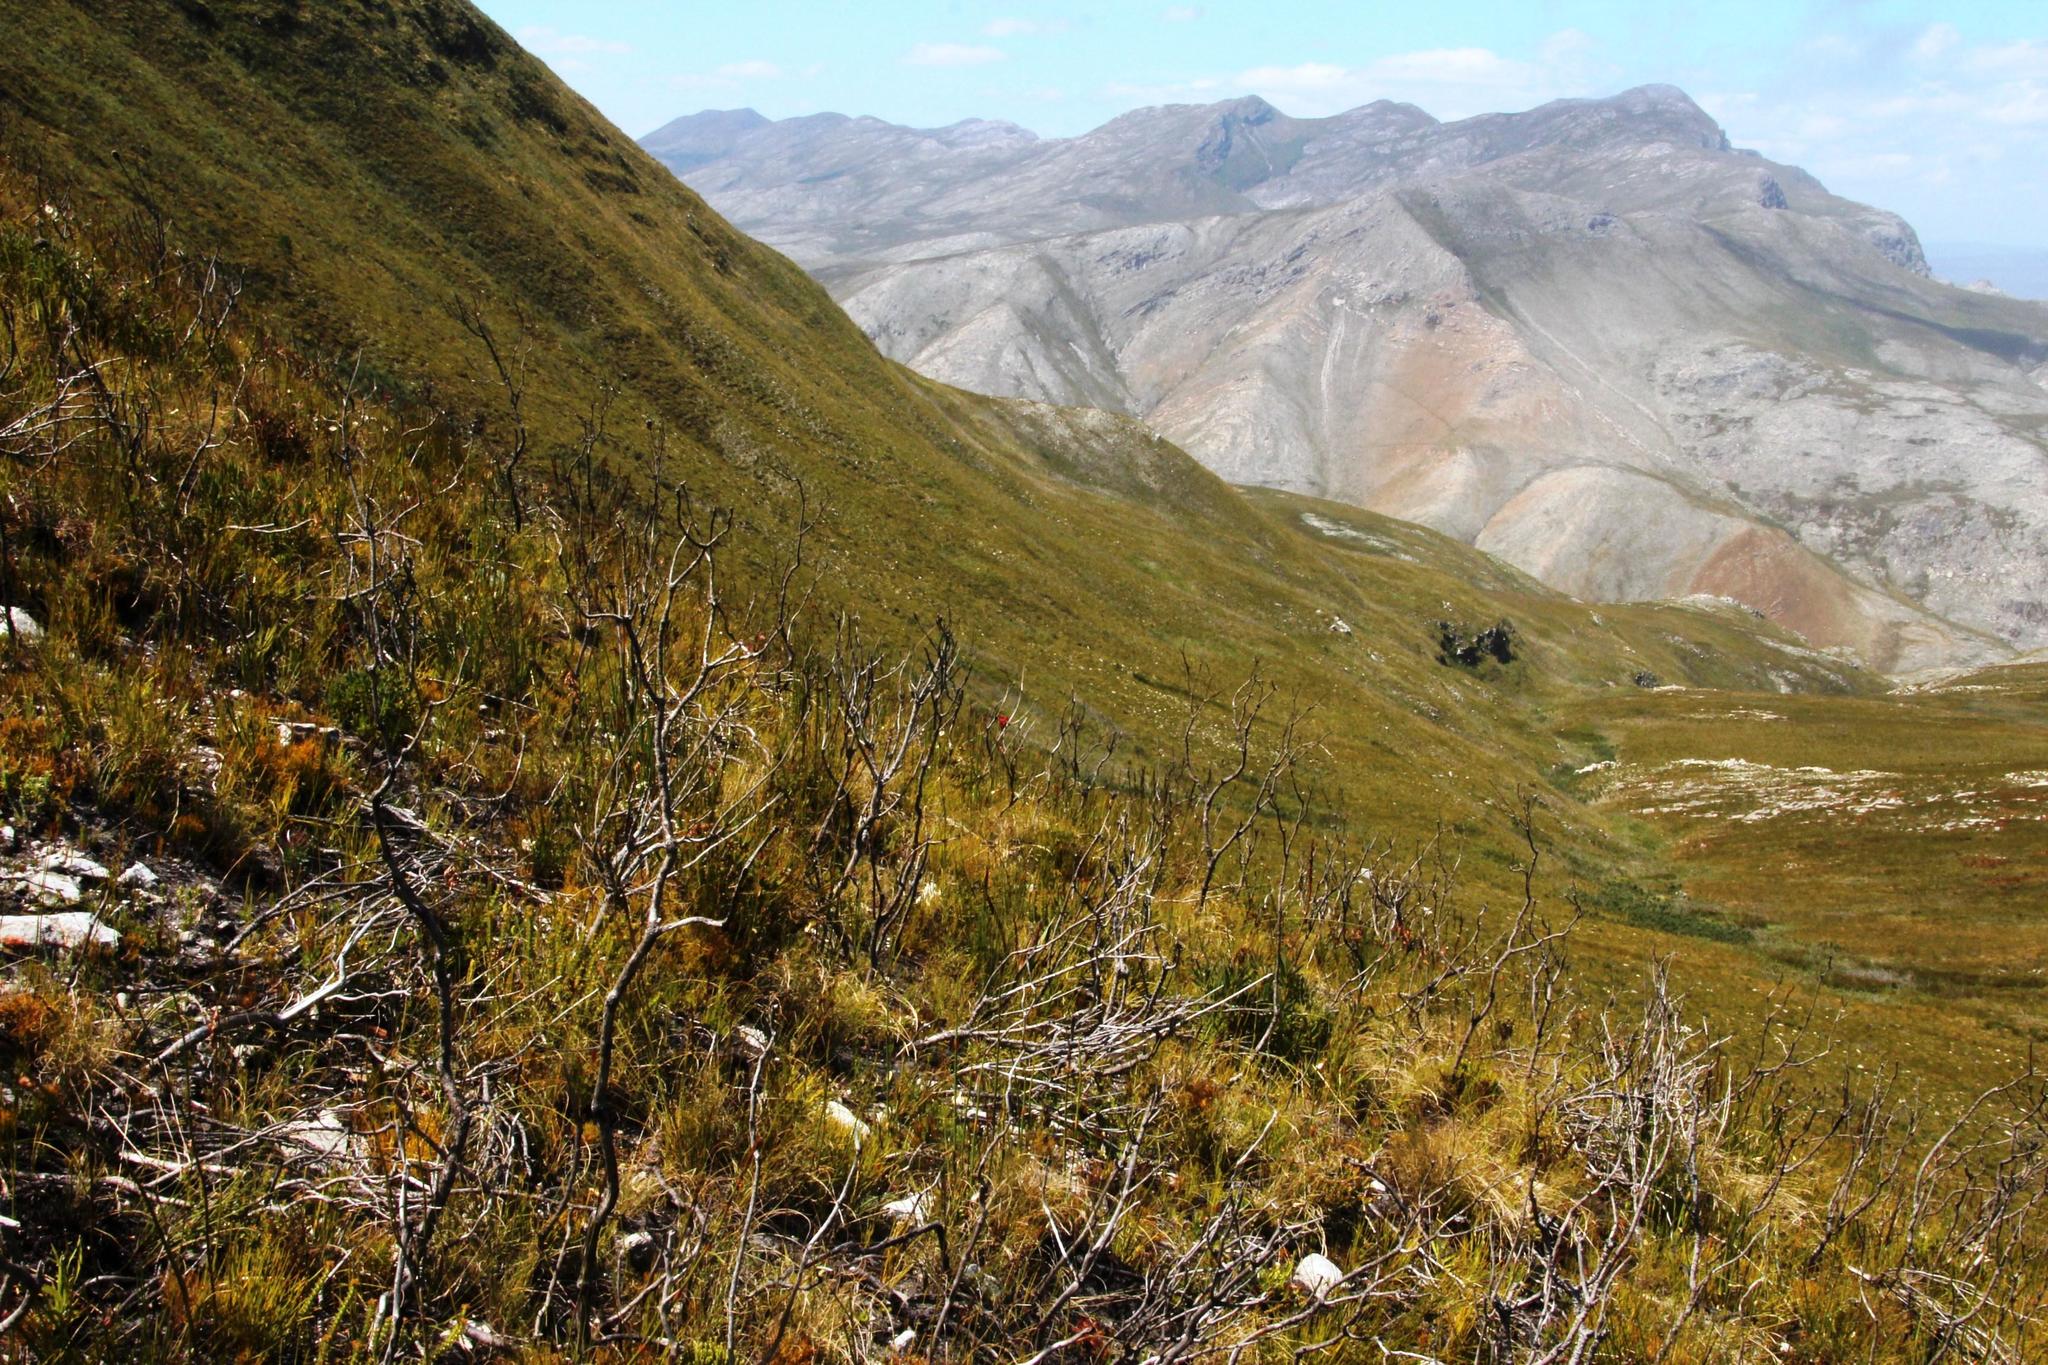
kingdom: Plantae
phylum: Tracheophyta
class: Liliopsida
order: Asparagales
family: Iridaceae
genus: Tritoniopsis
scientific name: Tritoniopsis pulchra
